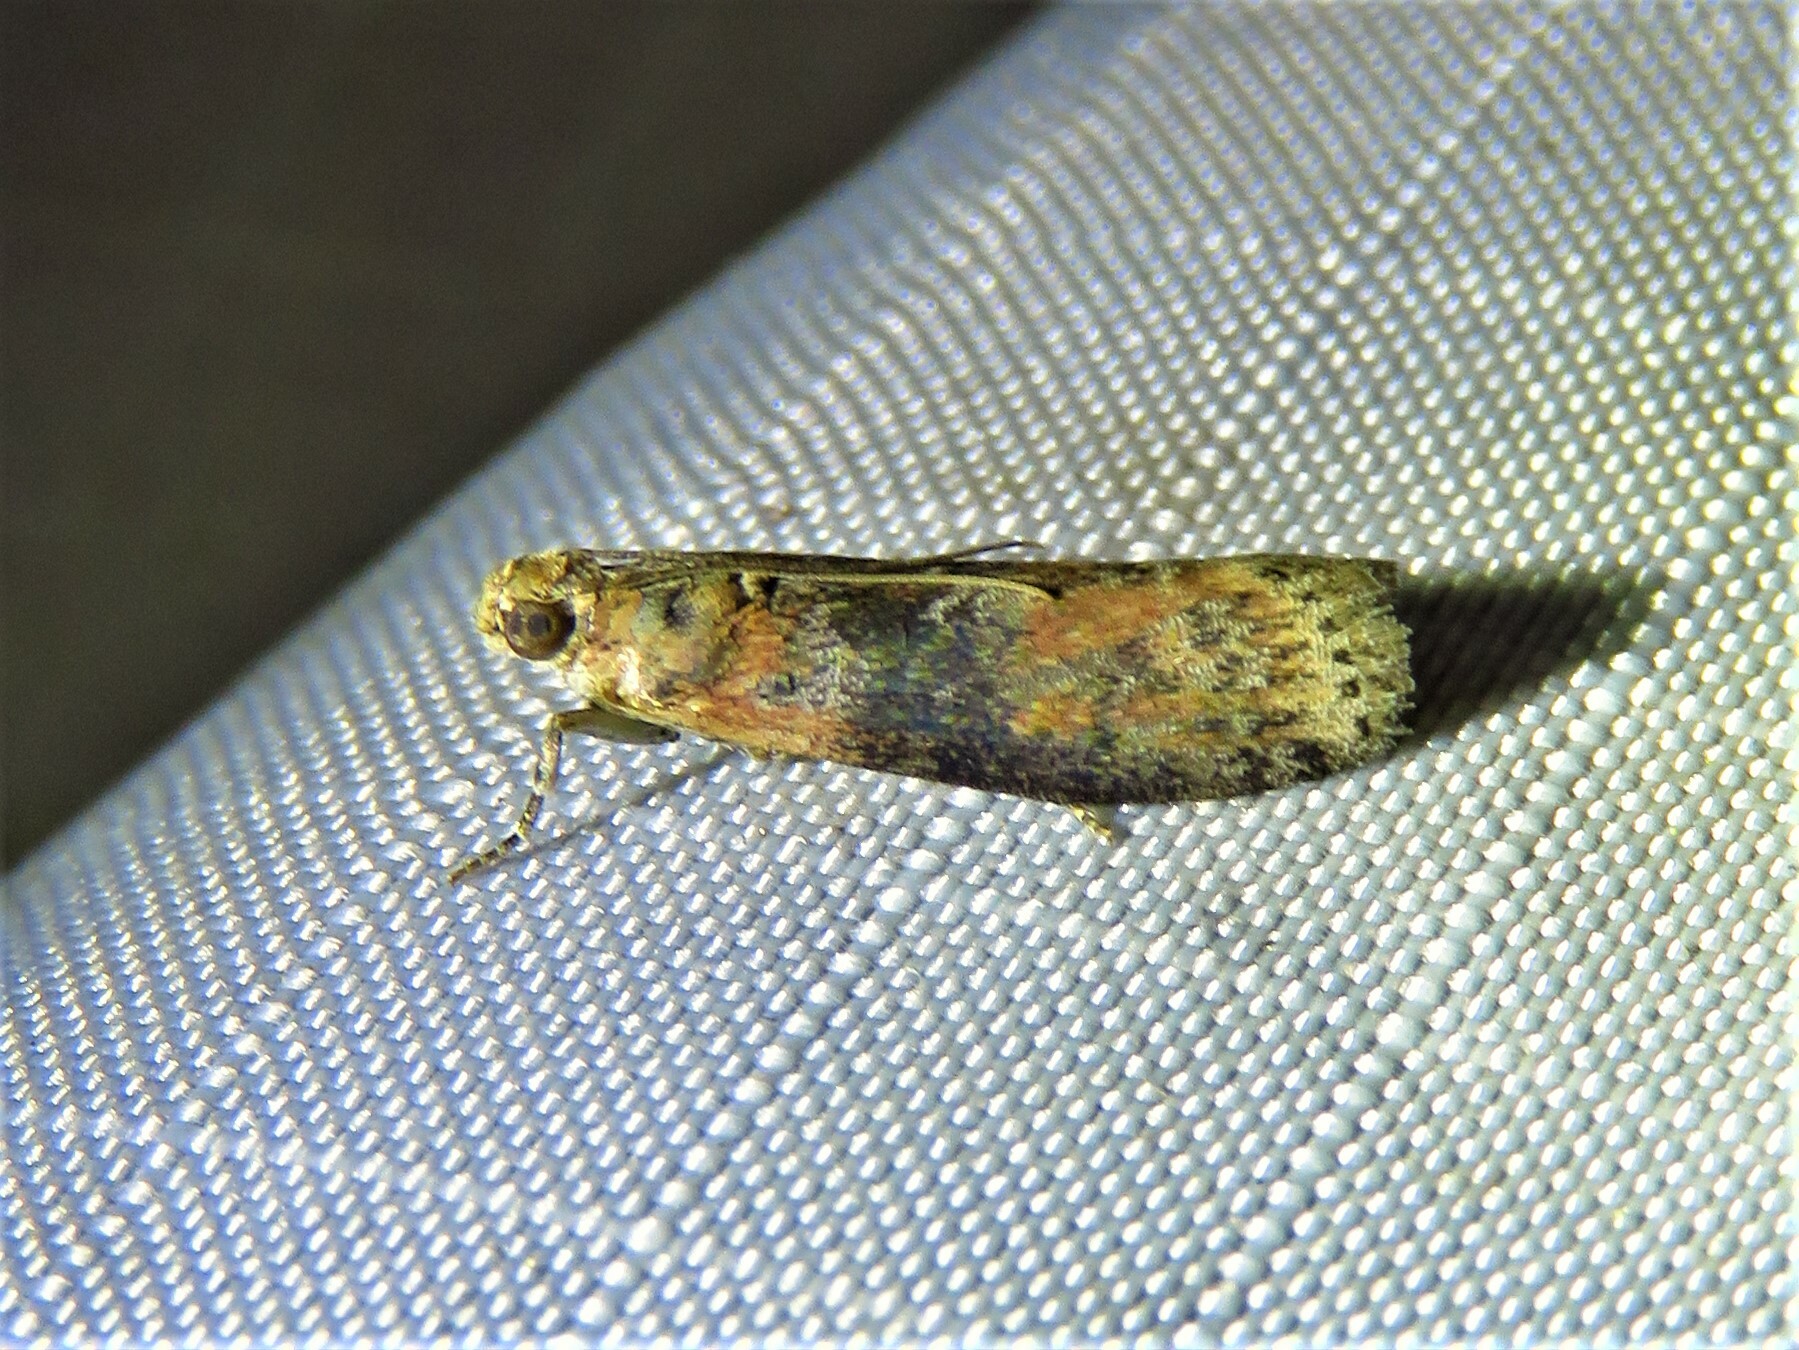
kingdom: Animalia
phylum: Arthropoda
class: Insecta
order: Lepidoptera
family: Pyralidae
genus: Sciota
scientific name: Sciota celtidella
